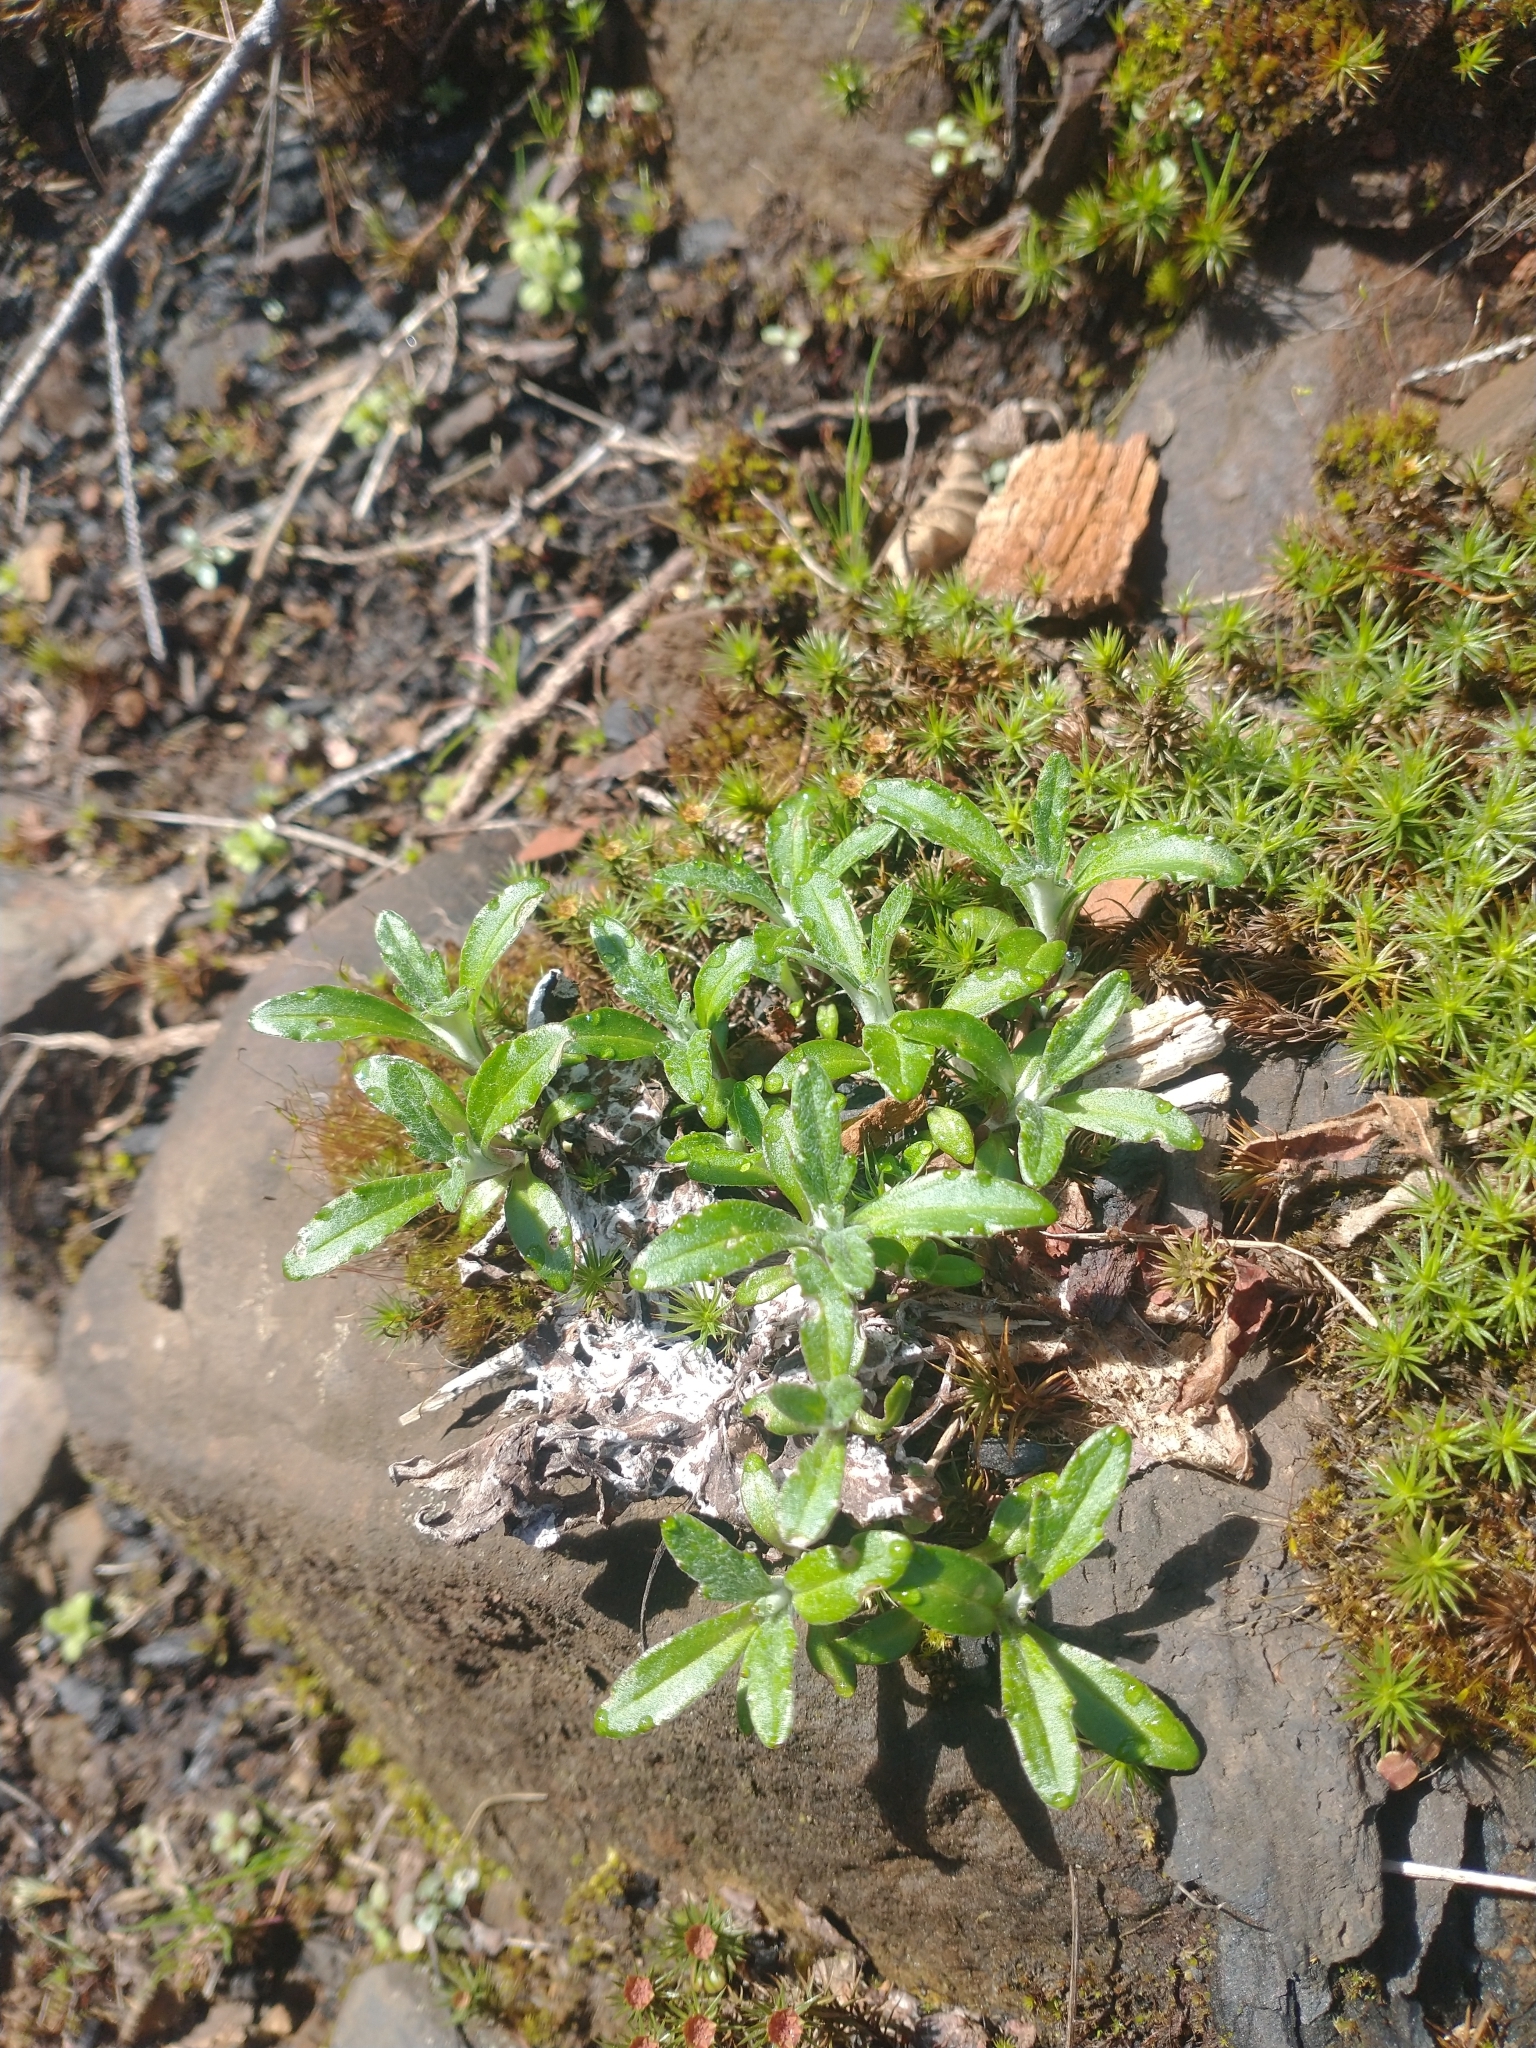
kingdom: Plantae
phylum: Tracheophyta
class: Magnoliopsida
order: Asterales
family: Asteraceae
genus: Eriophyllum
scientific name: Eriophyllum lanatum
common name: Common woolly-sunflower
